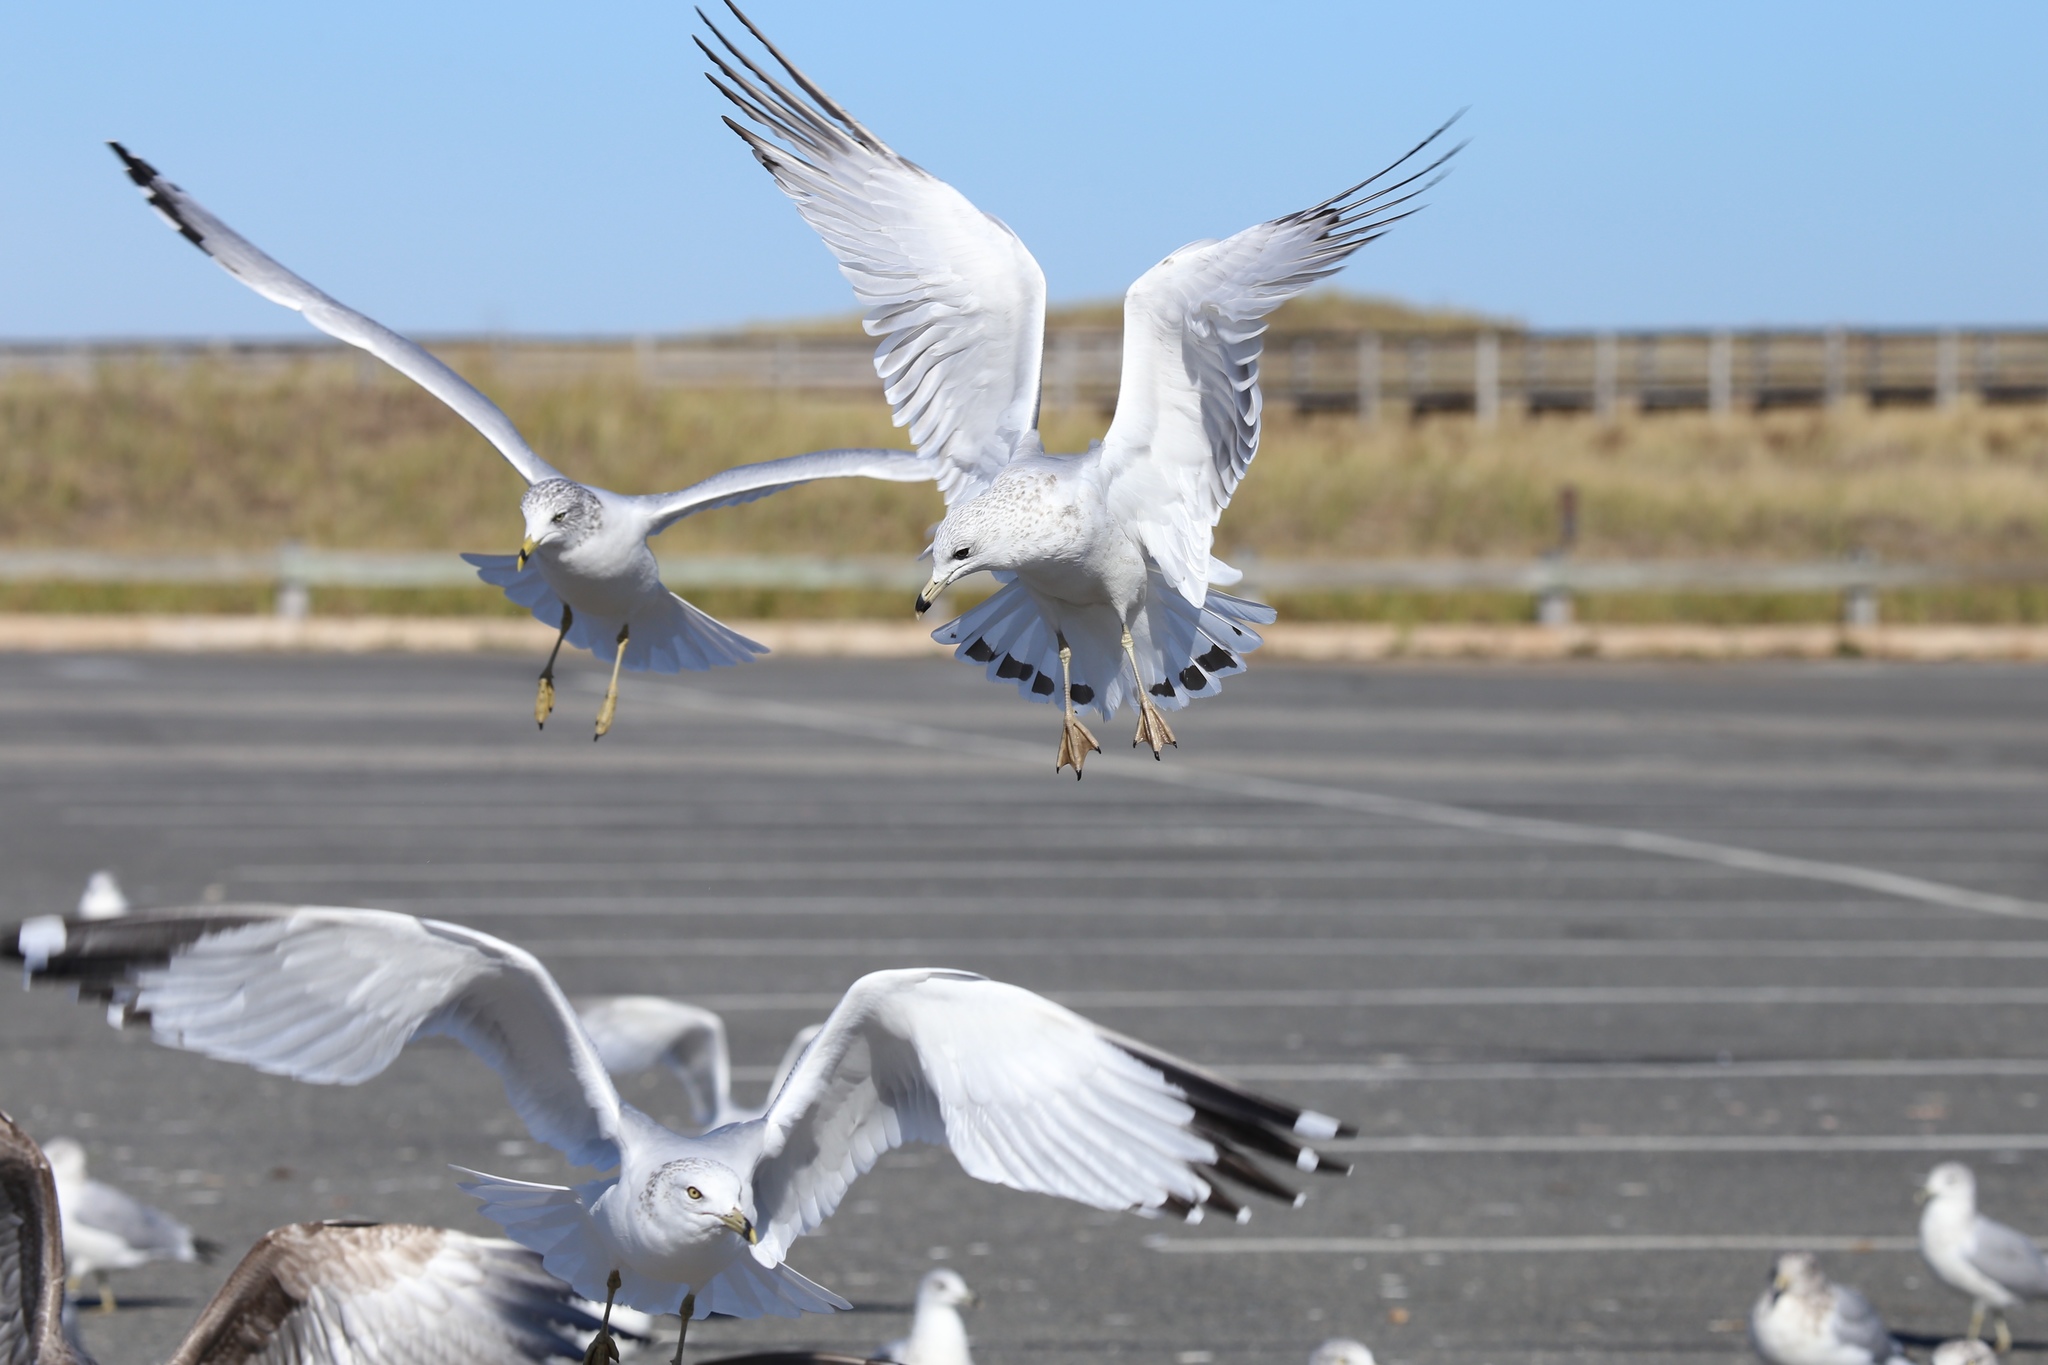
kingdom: Animalia
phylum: Chordata
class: Aves
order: Charadriiformes
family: Laridae
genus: Larus
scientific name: Larus delawarensis
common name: Ring-billed gull
